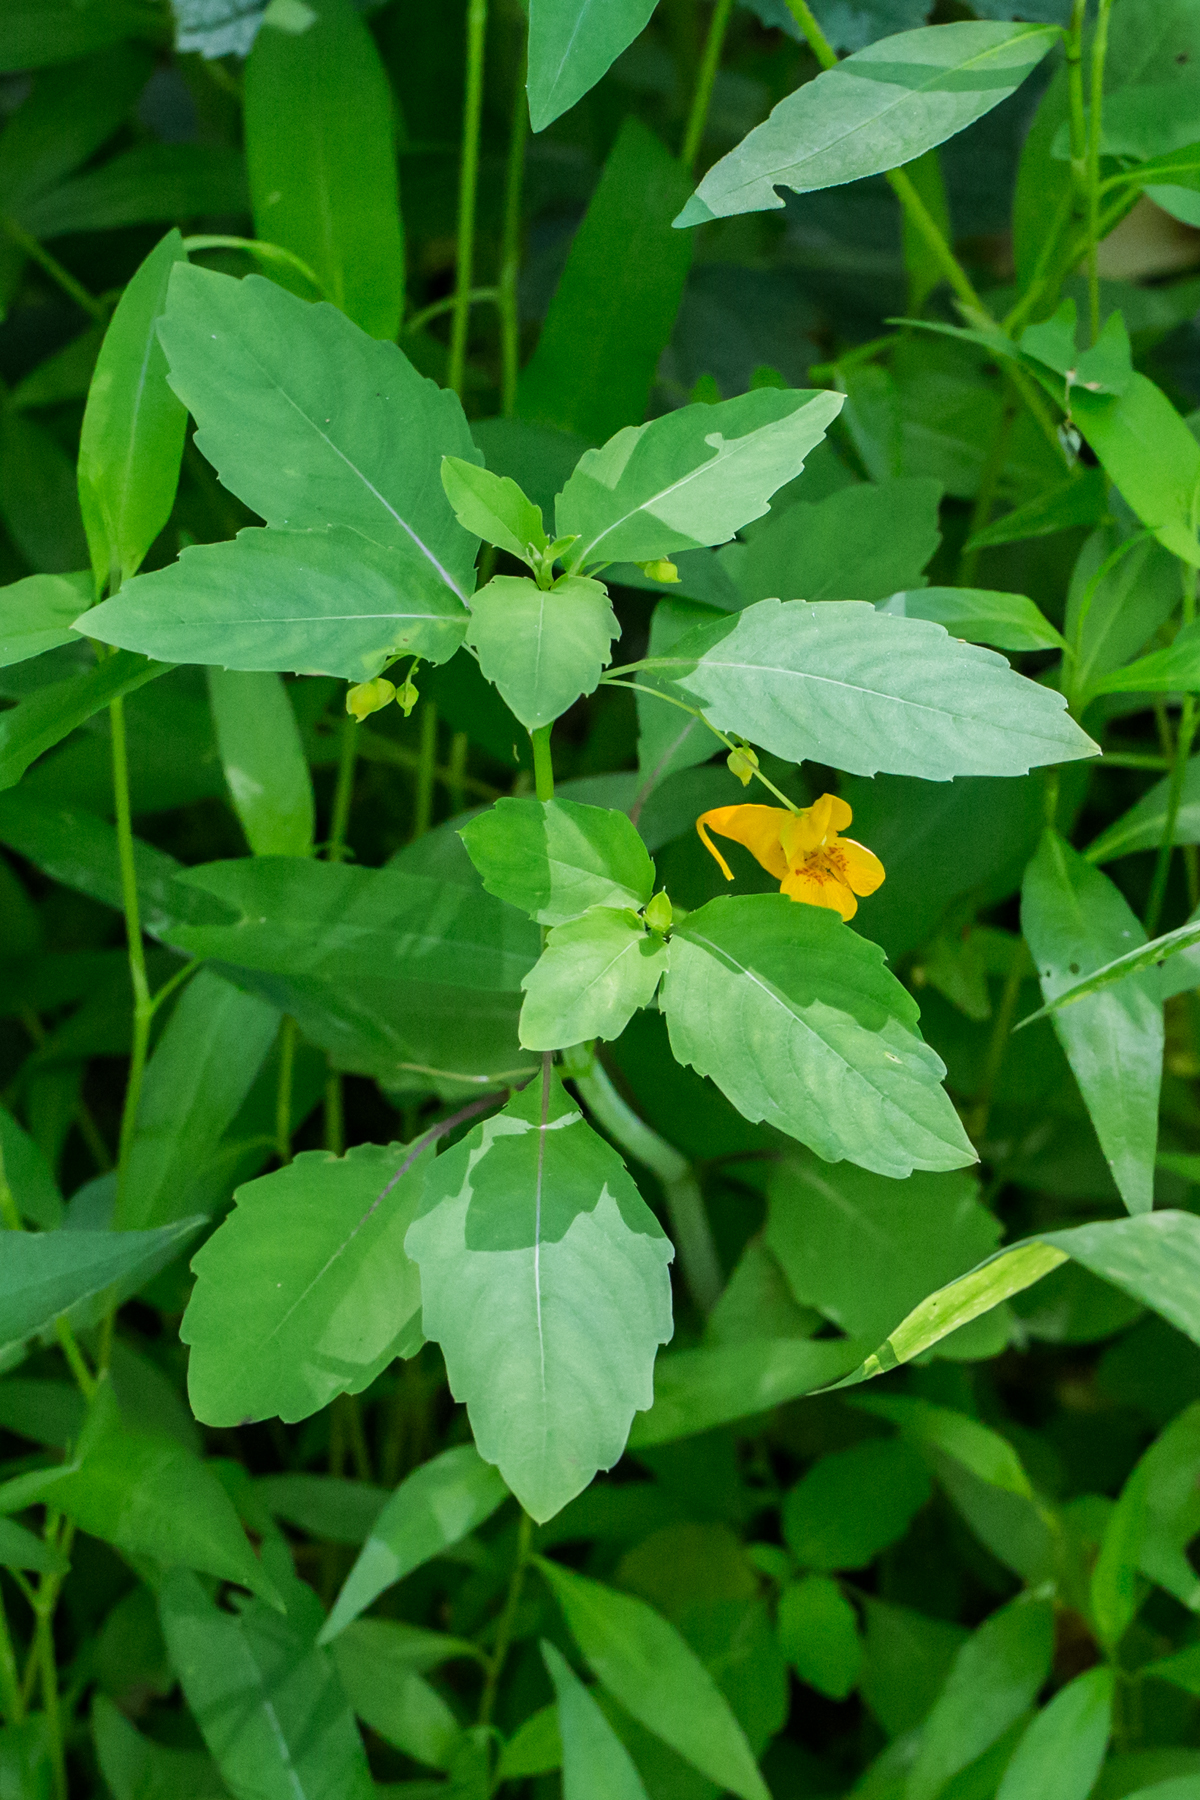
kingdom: Plantae
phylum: Tracheophyta
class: Magnoliopsida
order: Ericales
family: Balsaminaceae
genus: Impatiens
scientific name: Impatiens capensis
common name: Orange balsam
